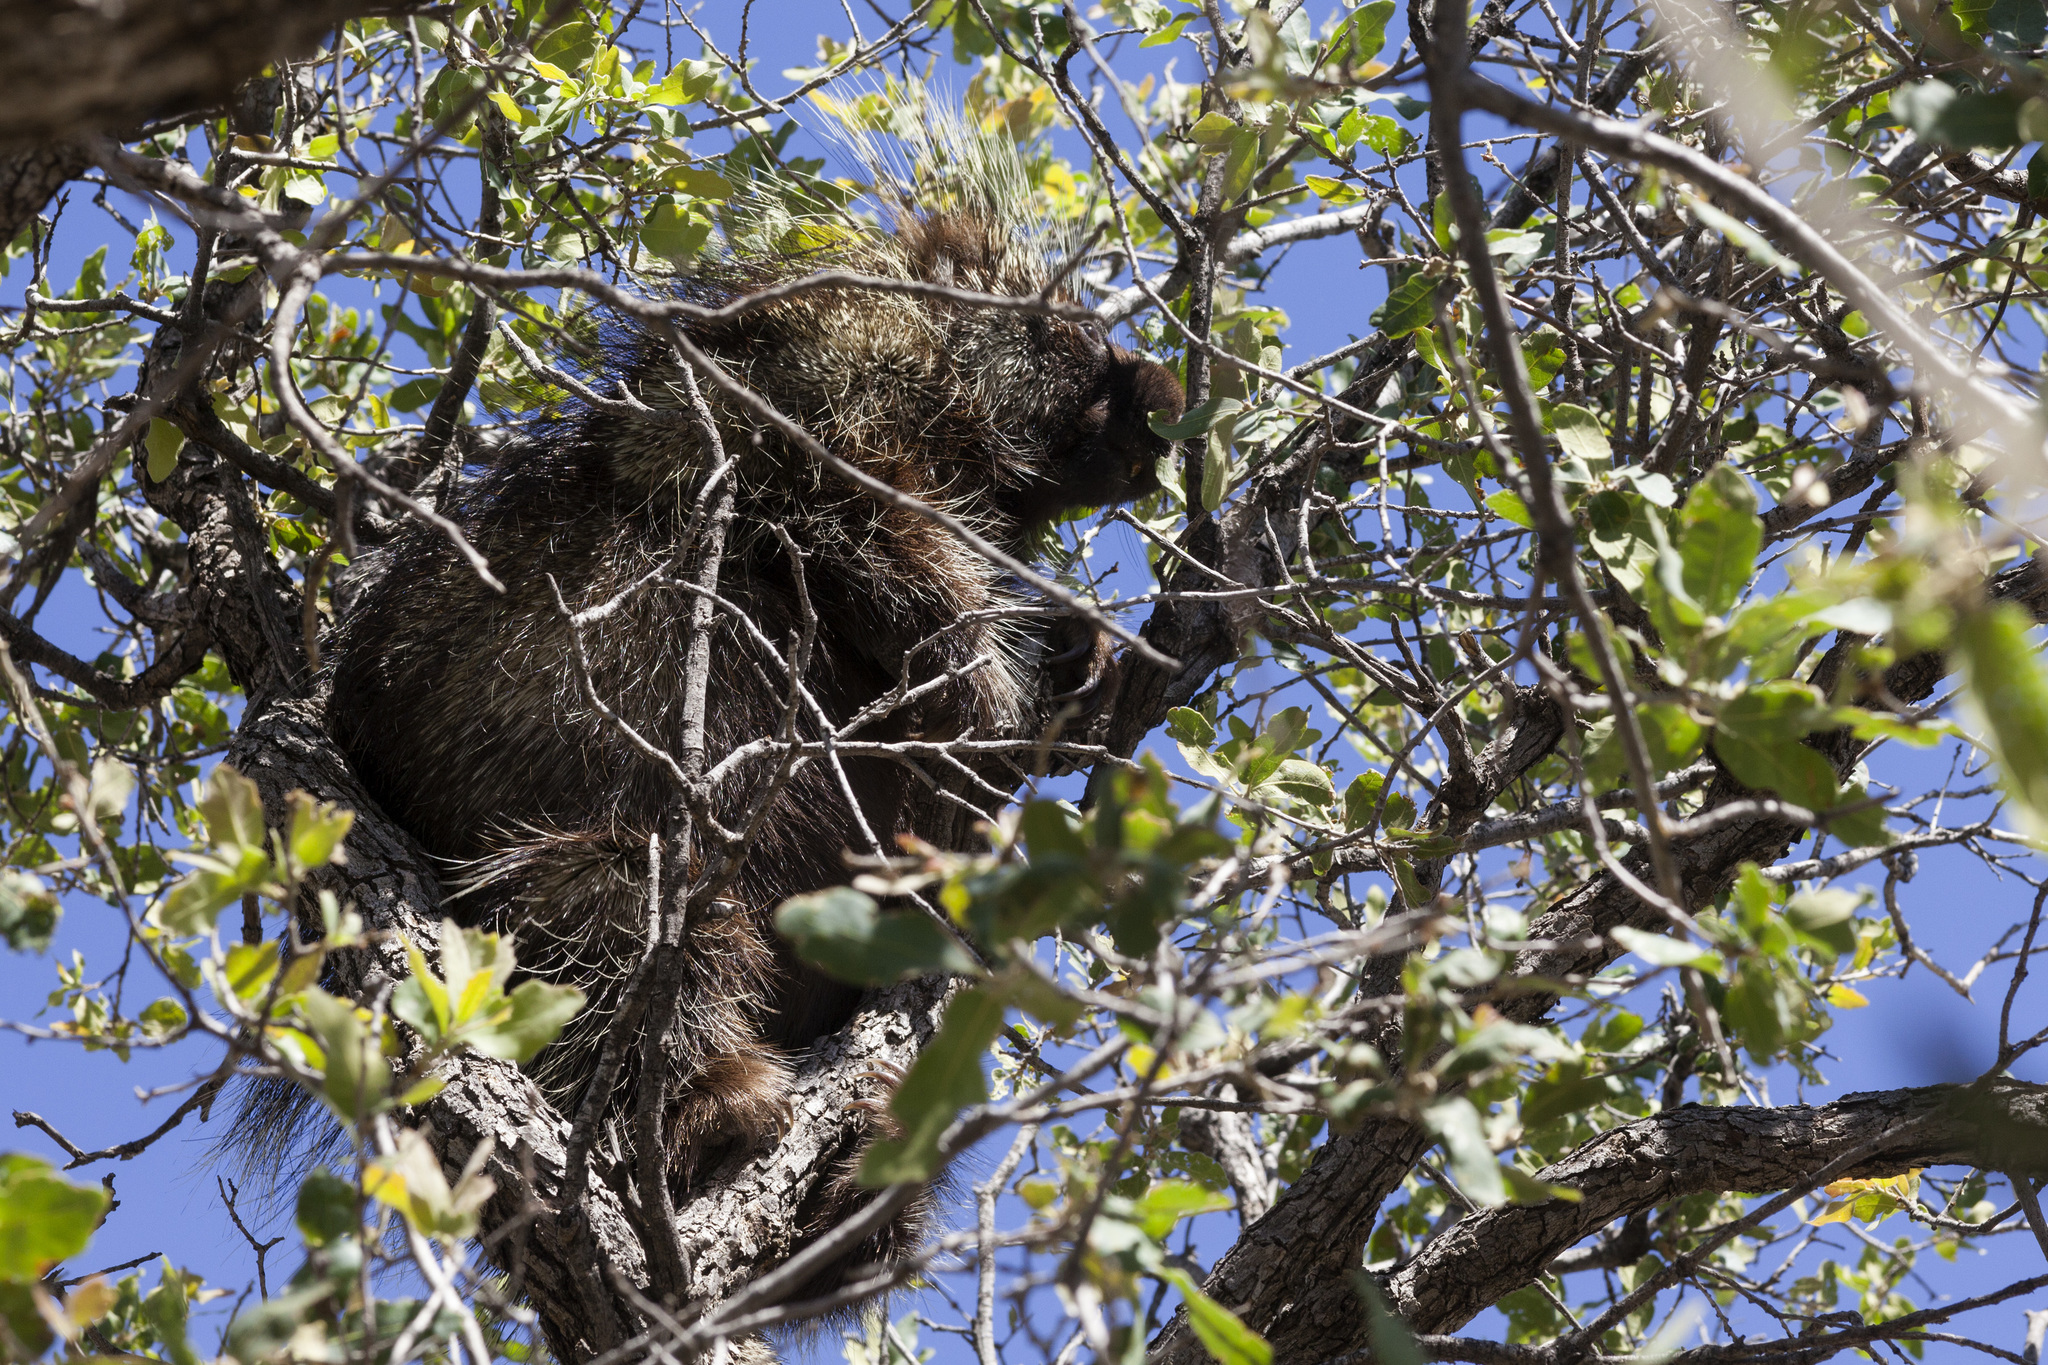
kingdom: Animalia
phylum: Chordata
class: Mammalia
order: Rodentia
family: Erethizontidae
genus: Erethizon
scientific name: Erethizon dorsatus
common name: North american porcupine
